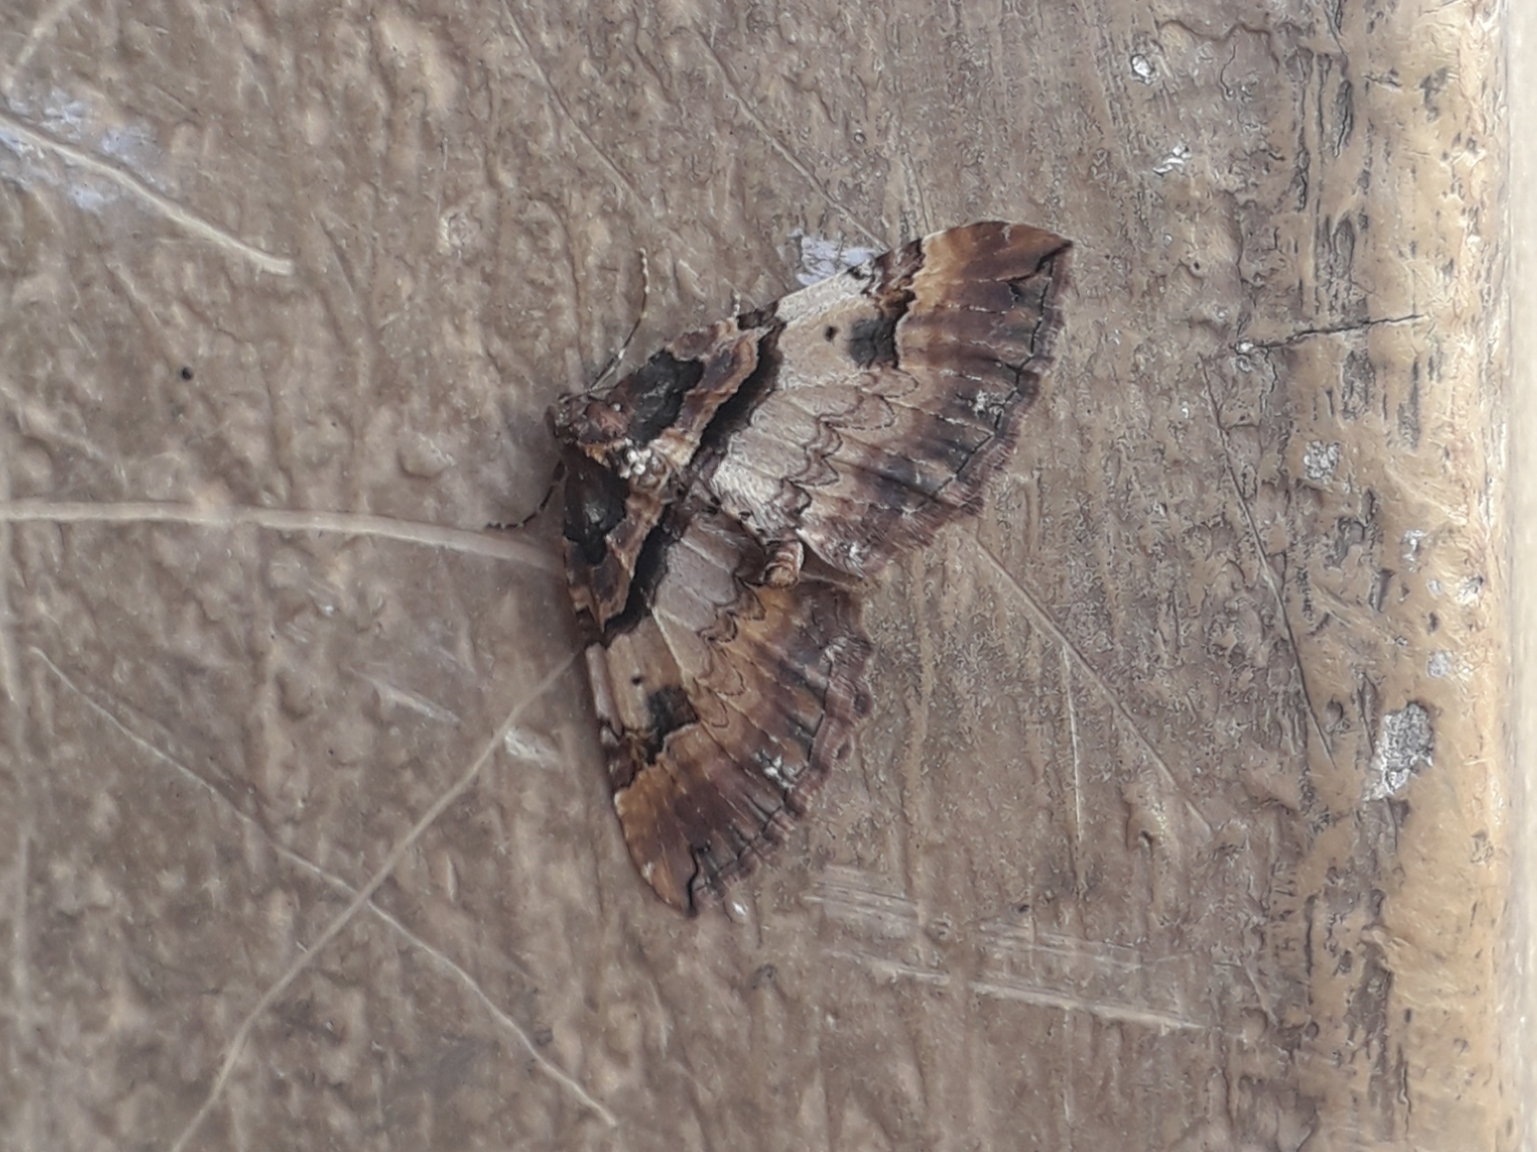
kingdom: Animalia
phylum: Arthropoda
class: Insecta
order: Lepidoptera
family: Geometridae
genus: Anticlea
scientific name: Anticlea badiata
